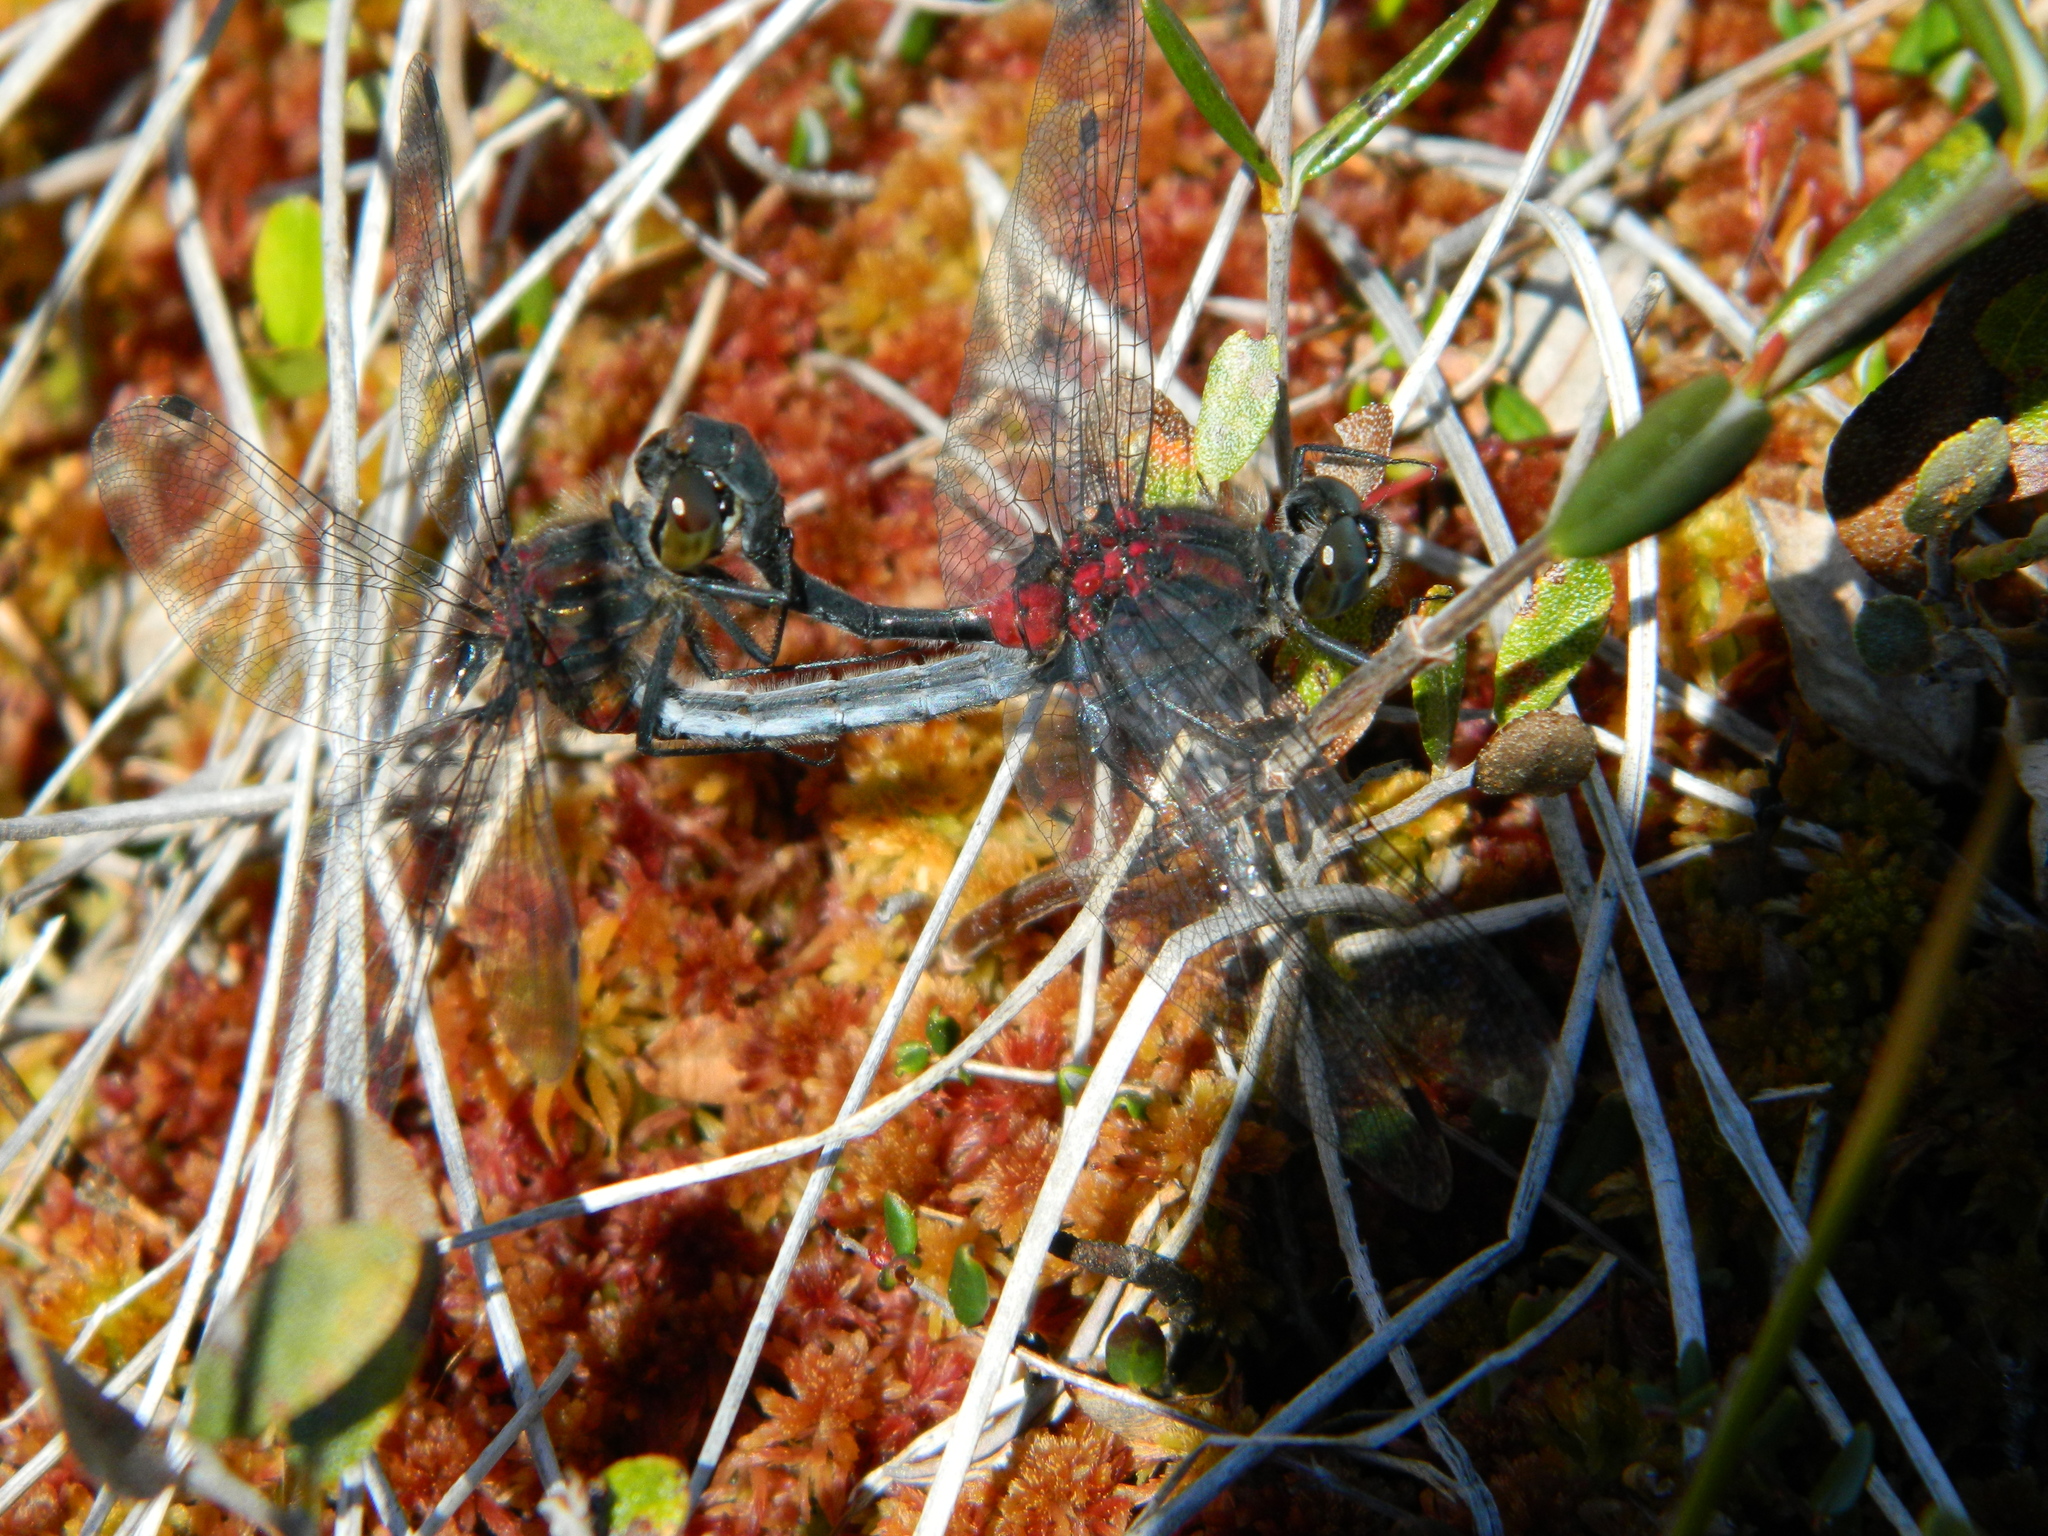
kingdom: Animalia
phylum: Arthropoda
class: Insecta
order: Odonata
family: Libellulidae
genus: Leucorrhinia
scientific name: Leucorrhinia glacialis
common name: Crimson-ringed whiteface
